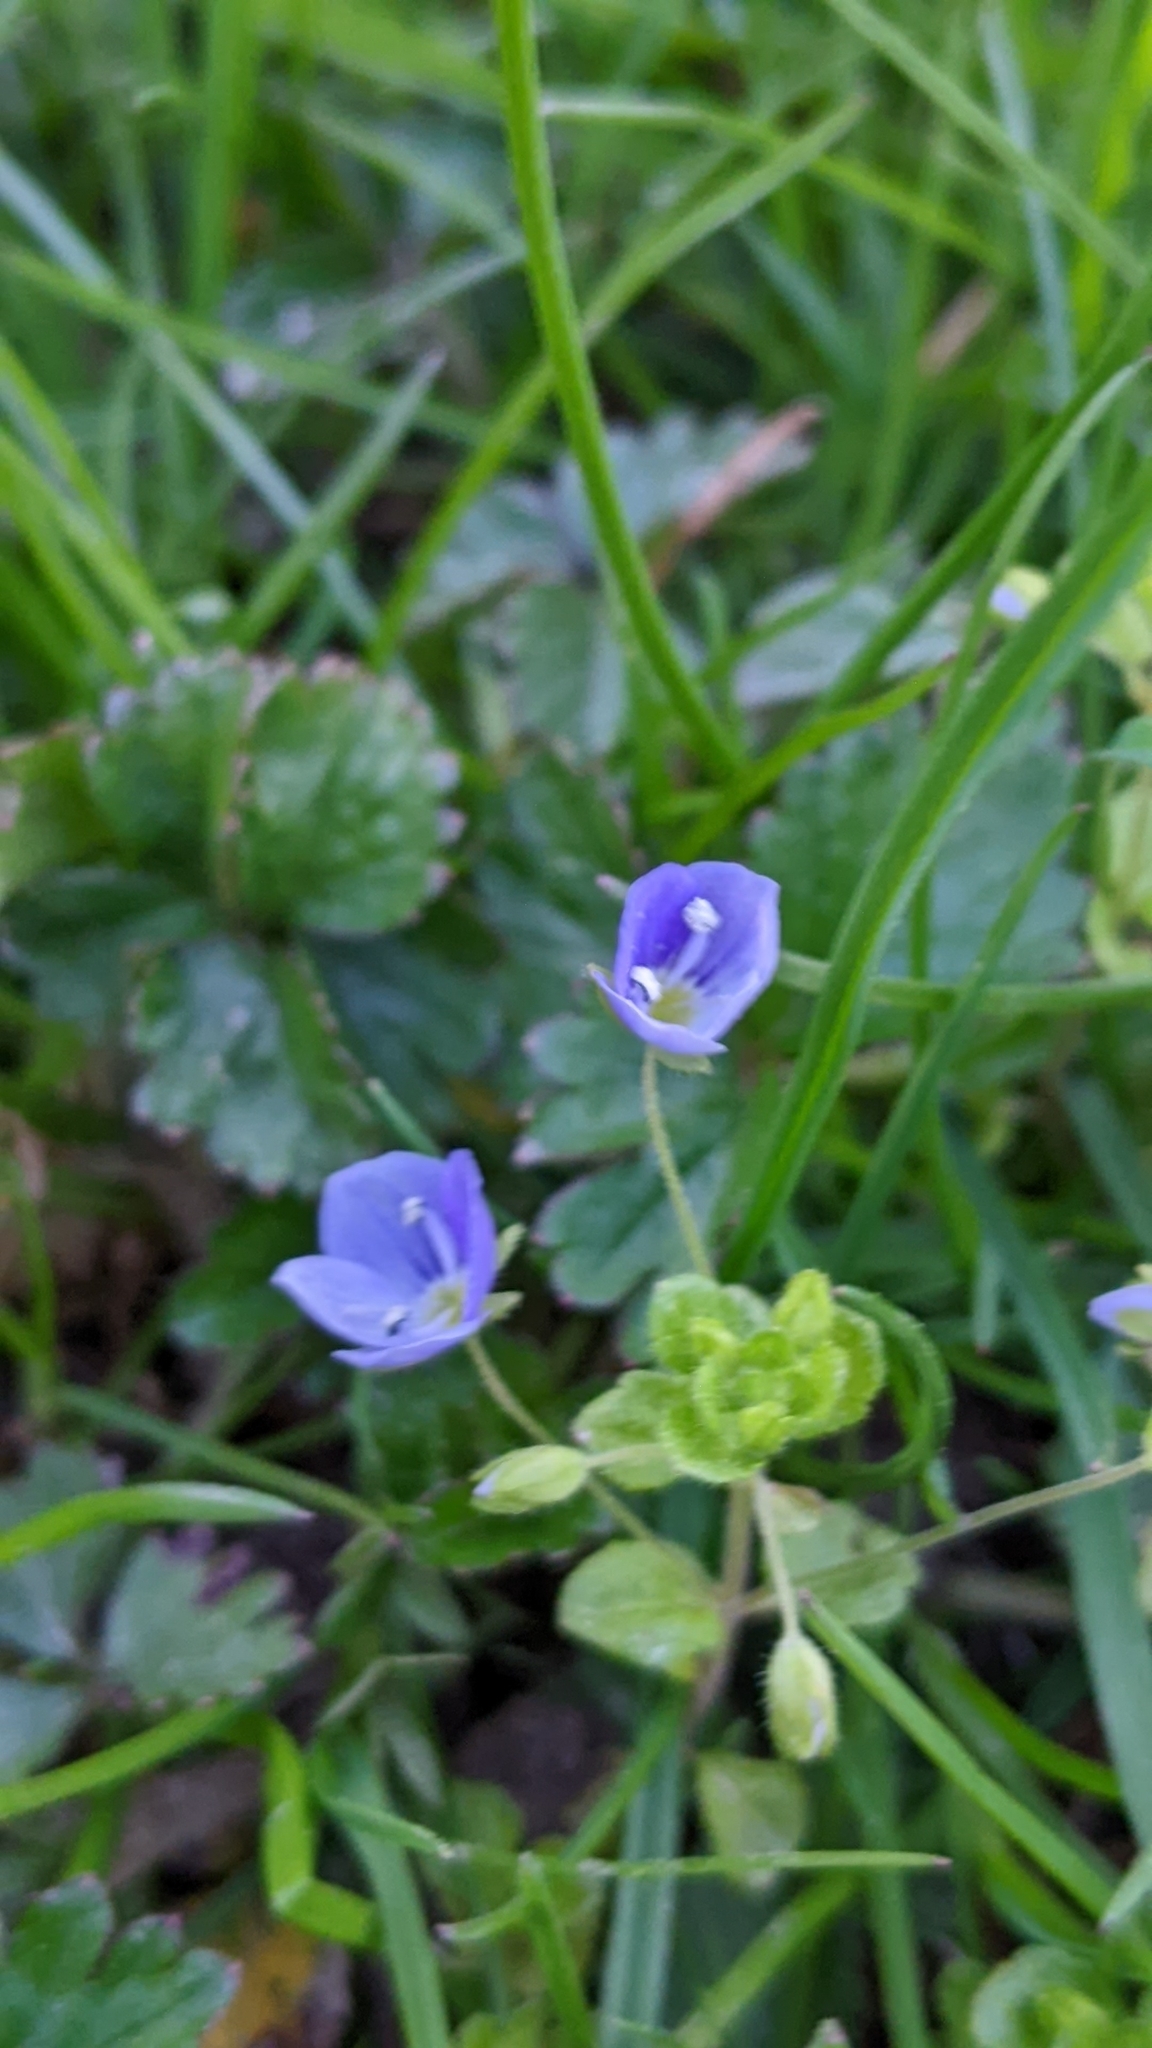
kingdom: Plantae
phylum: Tracheophyta
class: Magnoliopsida
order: Lamiales
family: Plantaginaceae
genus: Veronica
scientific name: Veronica filiformis
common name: Slender speedwell
